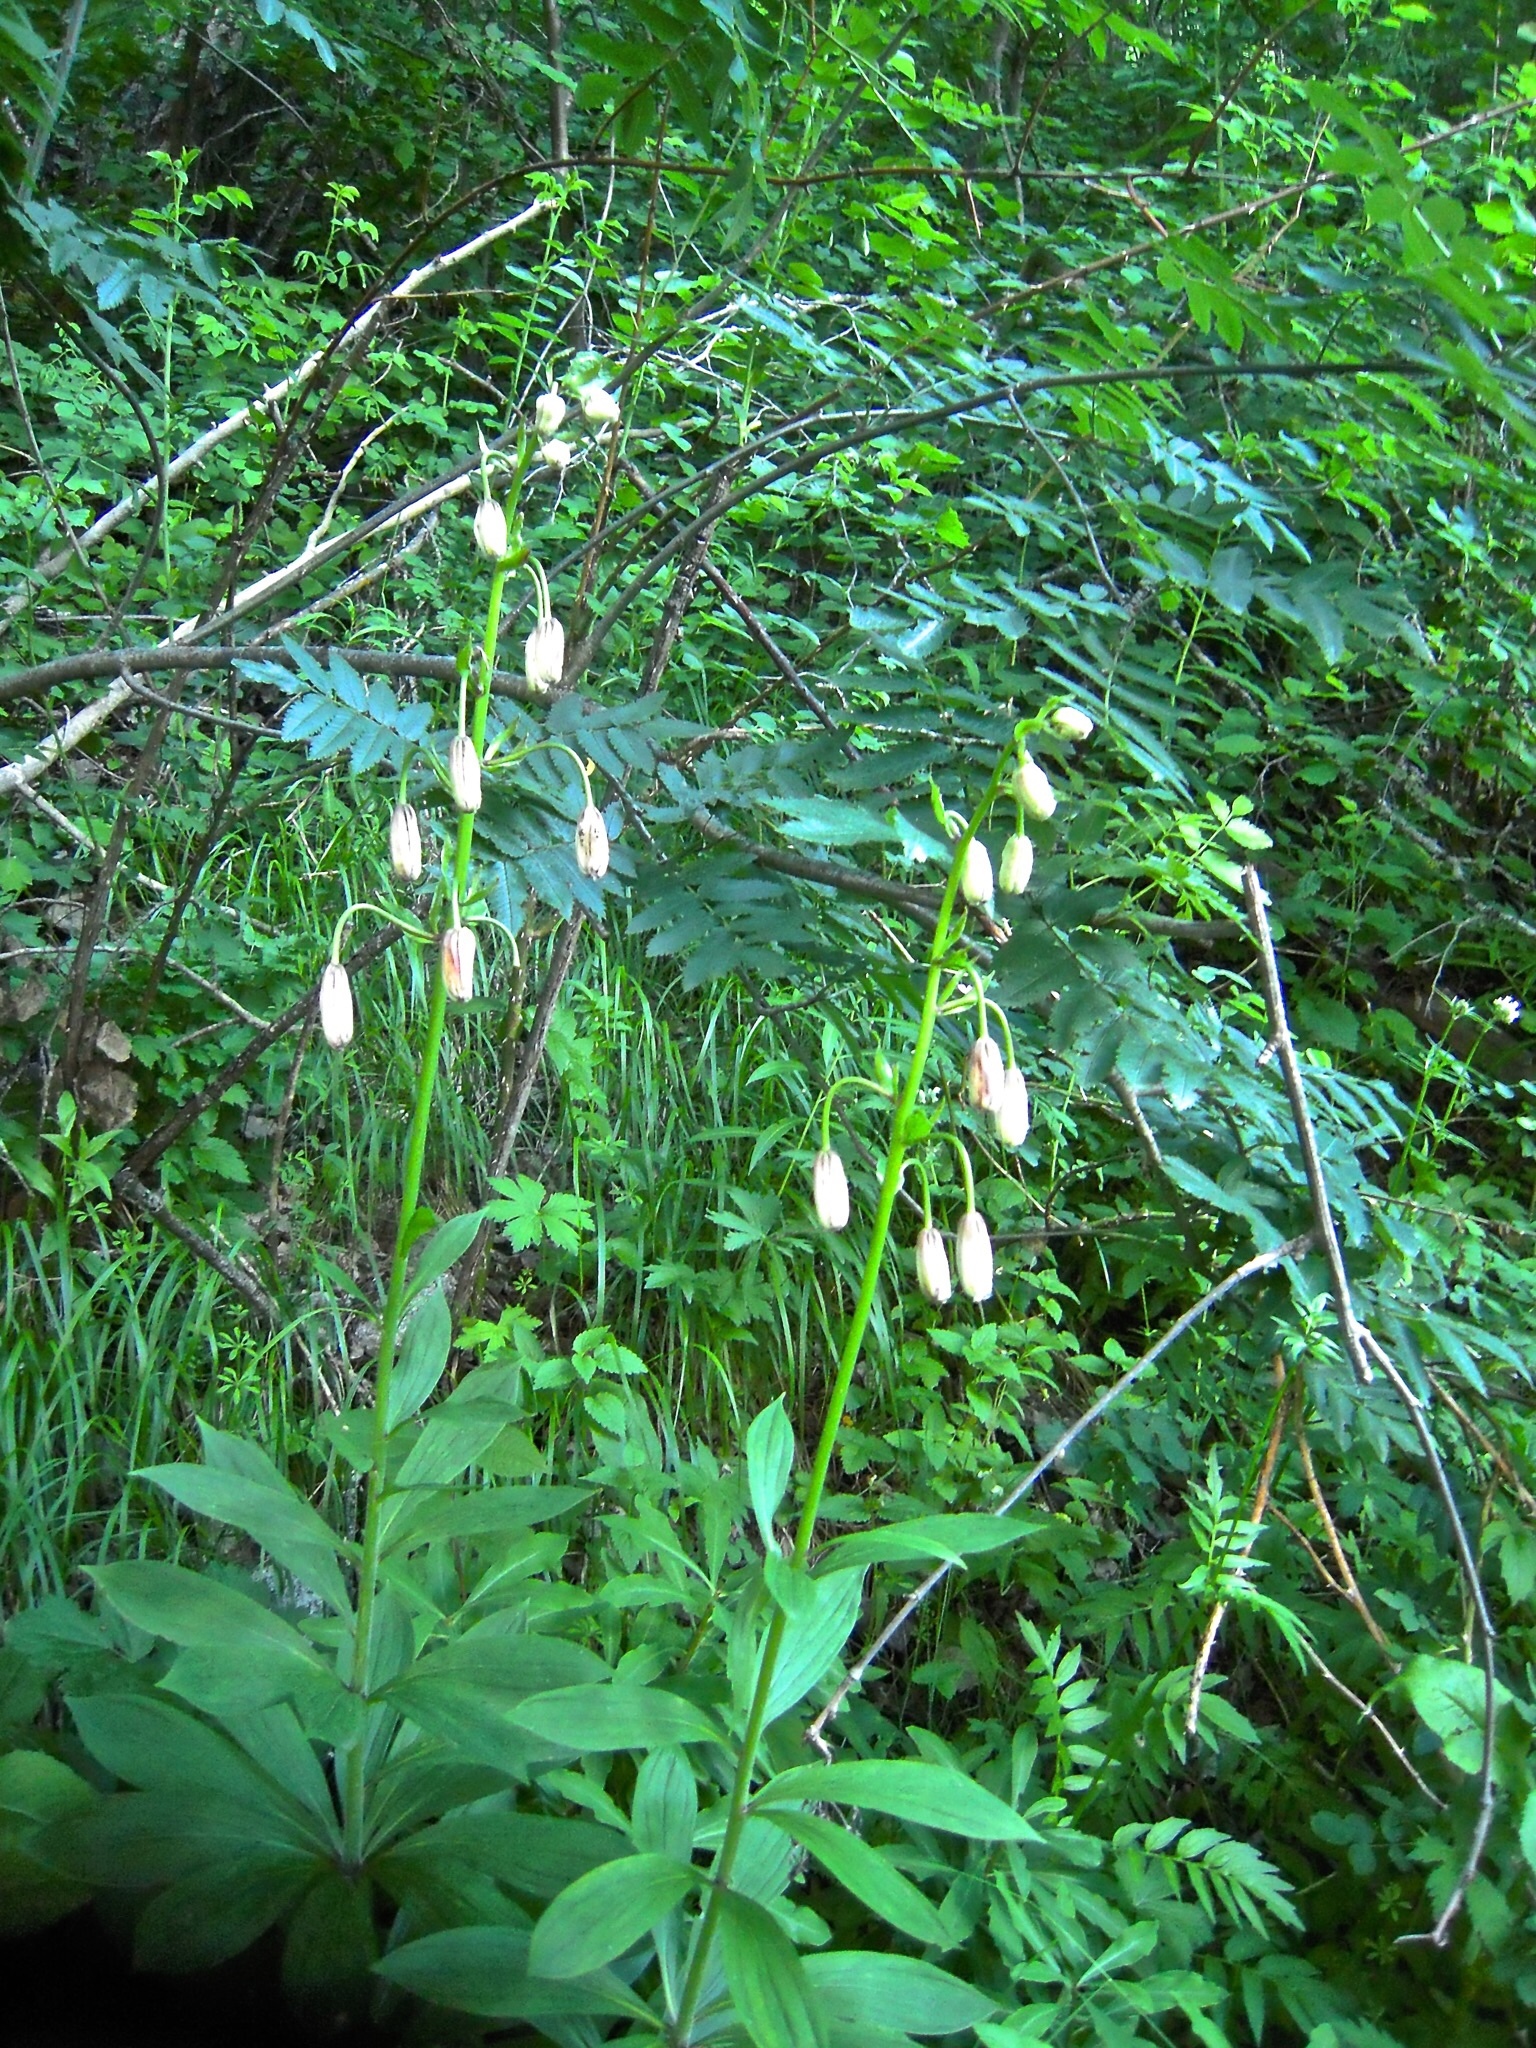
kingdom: Plantae
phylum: Tracheophyta
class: Liliopsida
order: Liliales
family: Liliaceae
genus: Lilium
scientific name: Lilium martagon
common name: Martagon lily
